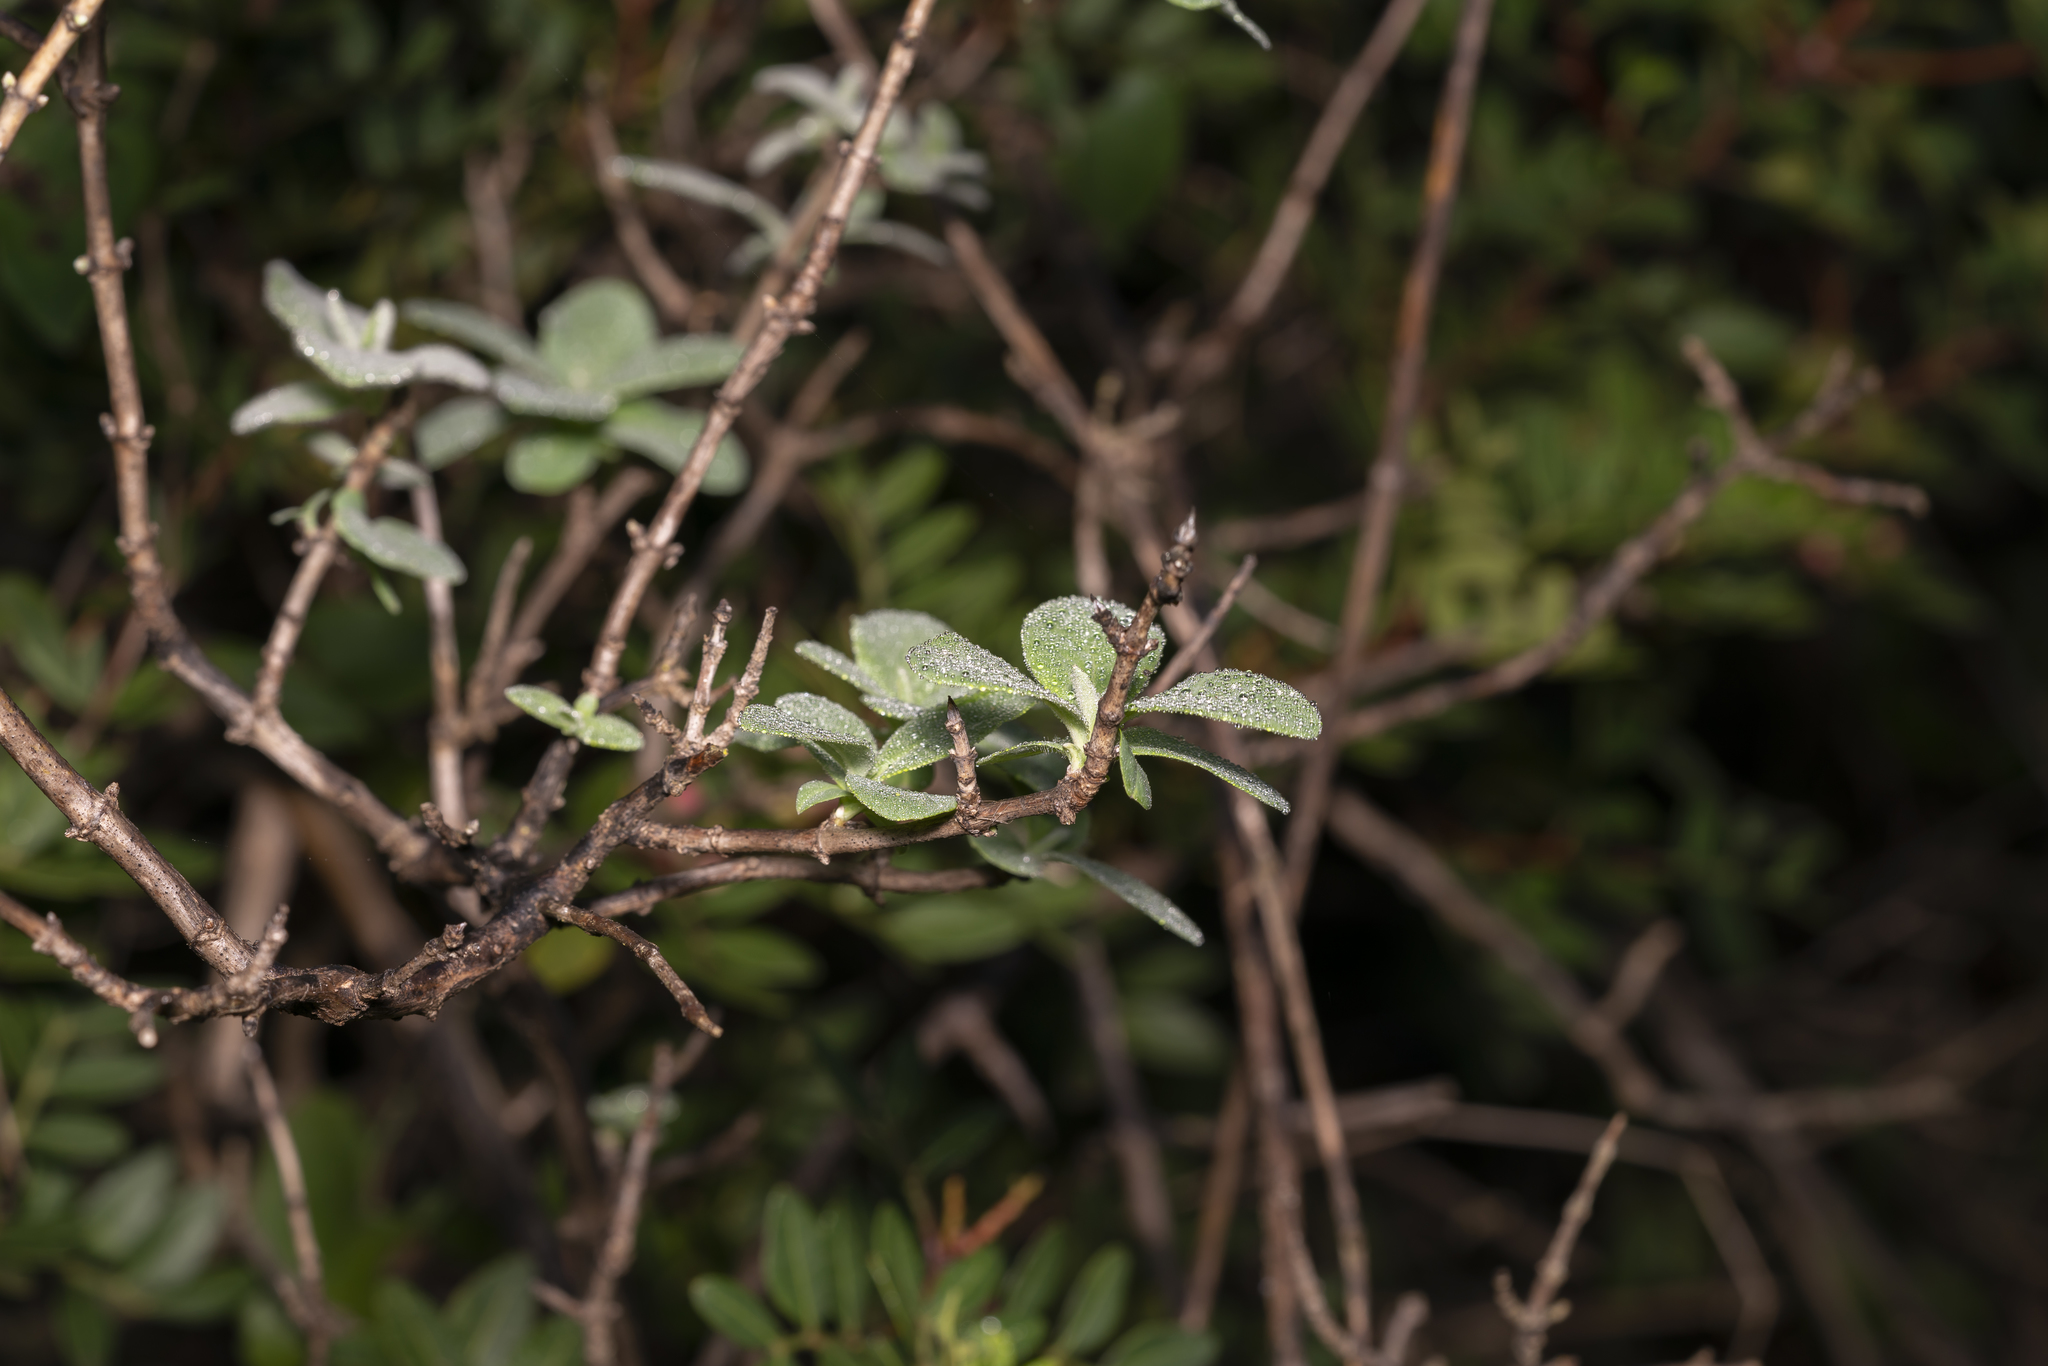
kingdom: Plantae
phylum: Tracheophyta
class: Magnoliopsida
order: Dipsacales
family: Caprifoliaceae
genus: Lonicera
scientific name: Lonicera etrusca
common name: Etruscan honeysuckle
